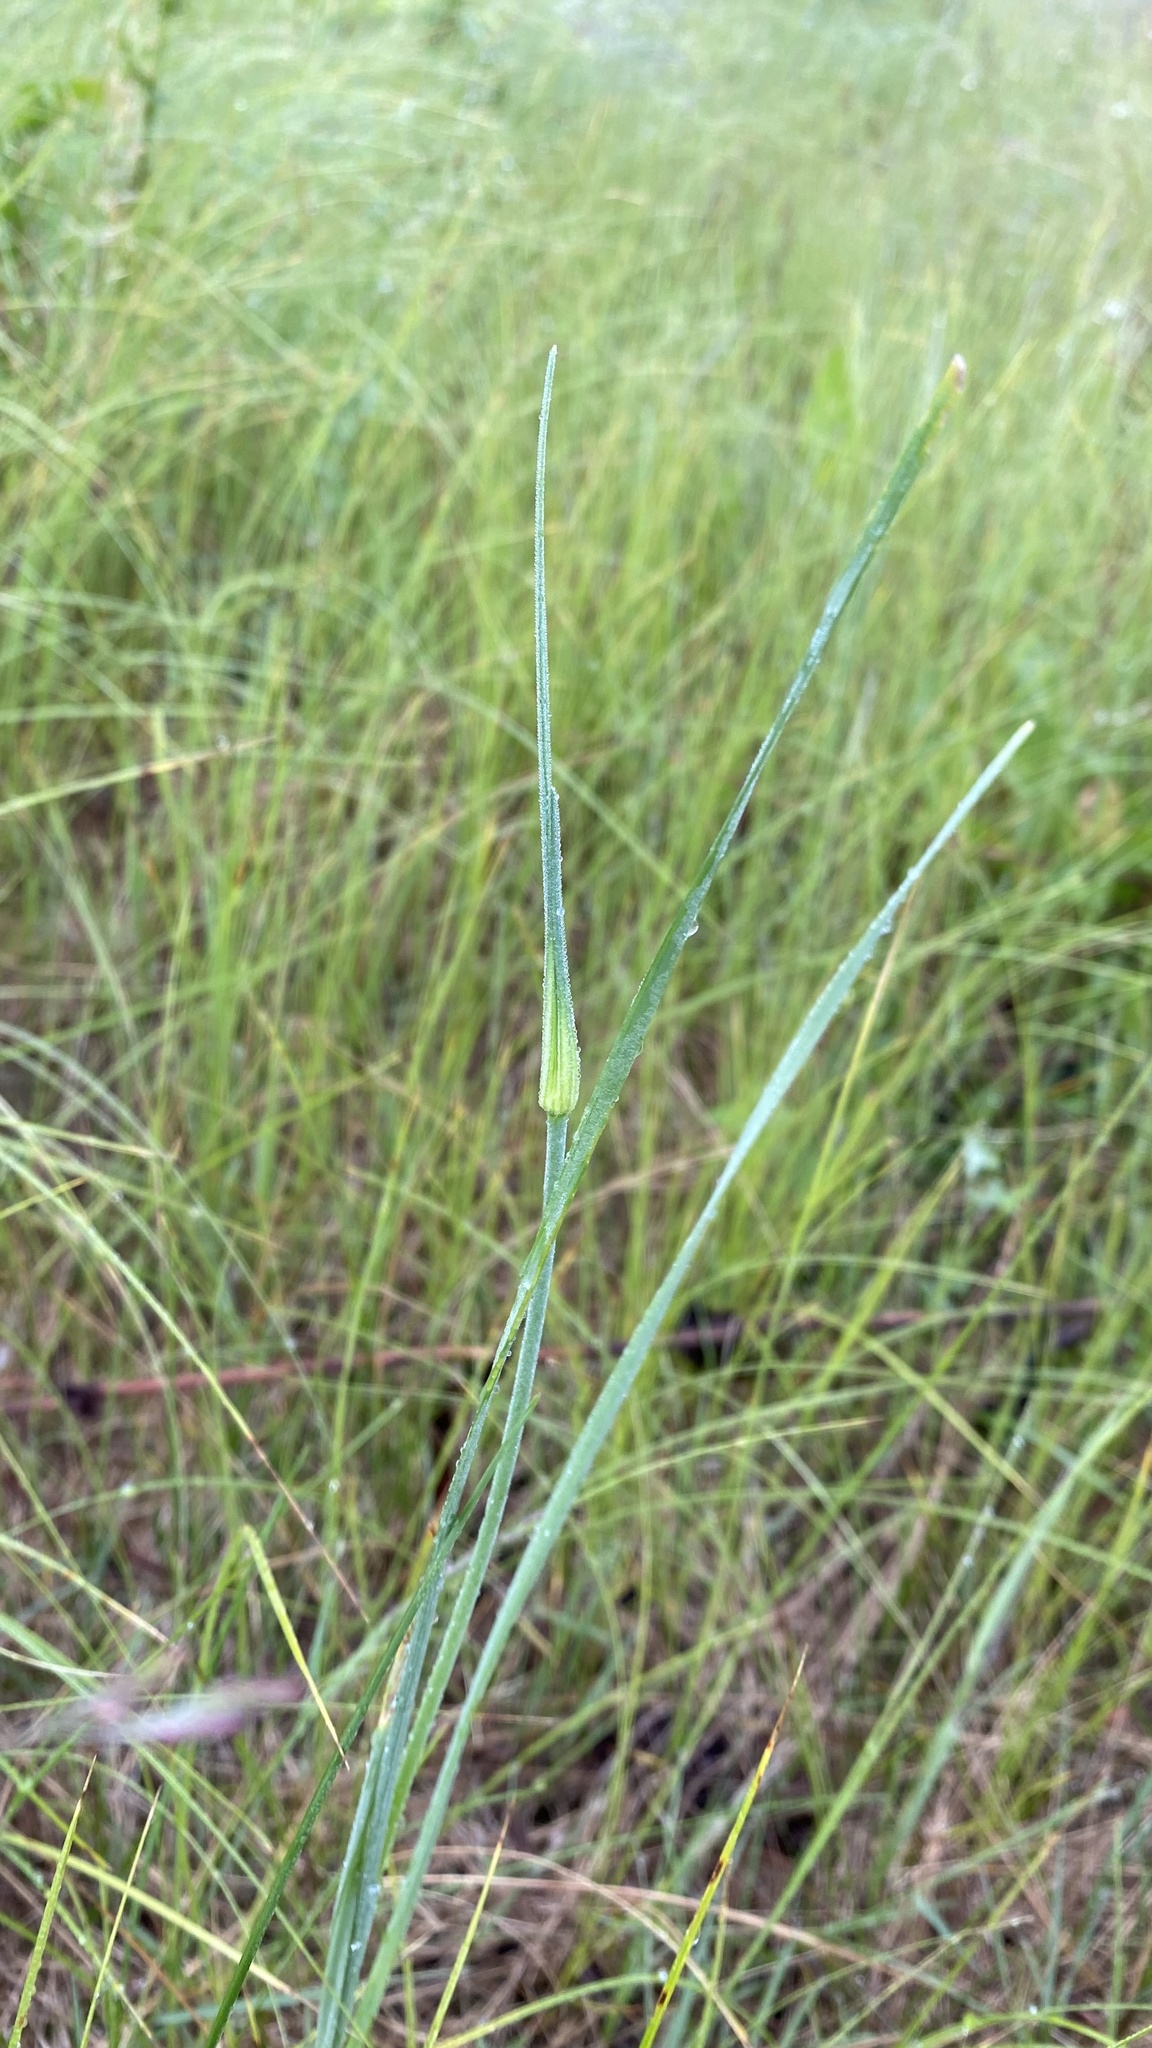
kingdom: Plantae
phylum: Tracheophyta
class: Liliopsida
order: Asparagales
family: Amaryllidaceae
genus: Allium
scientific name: Allium oleraceum
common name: Field garlic
